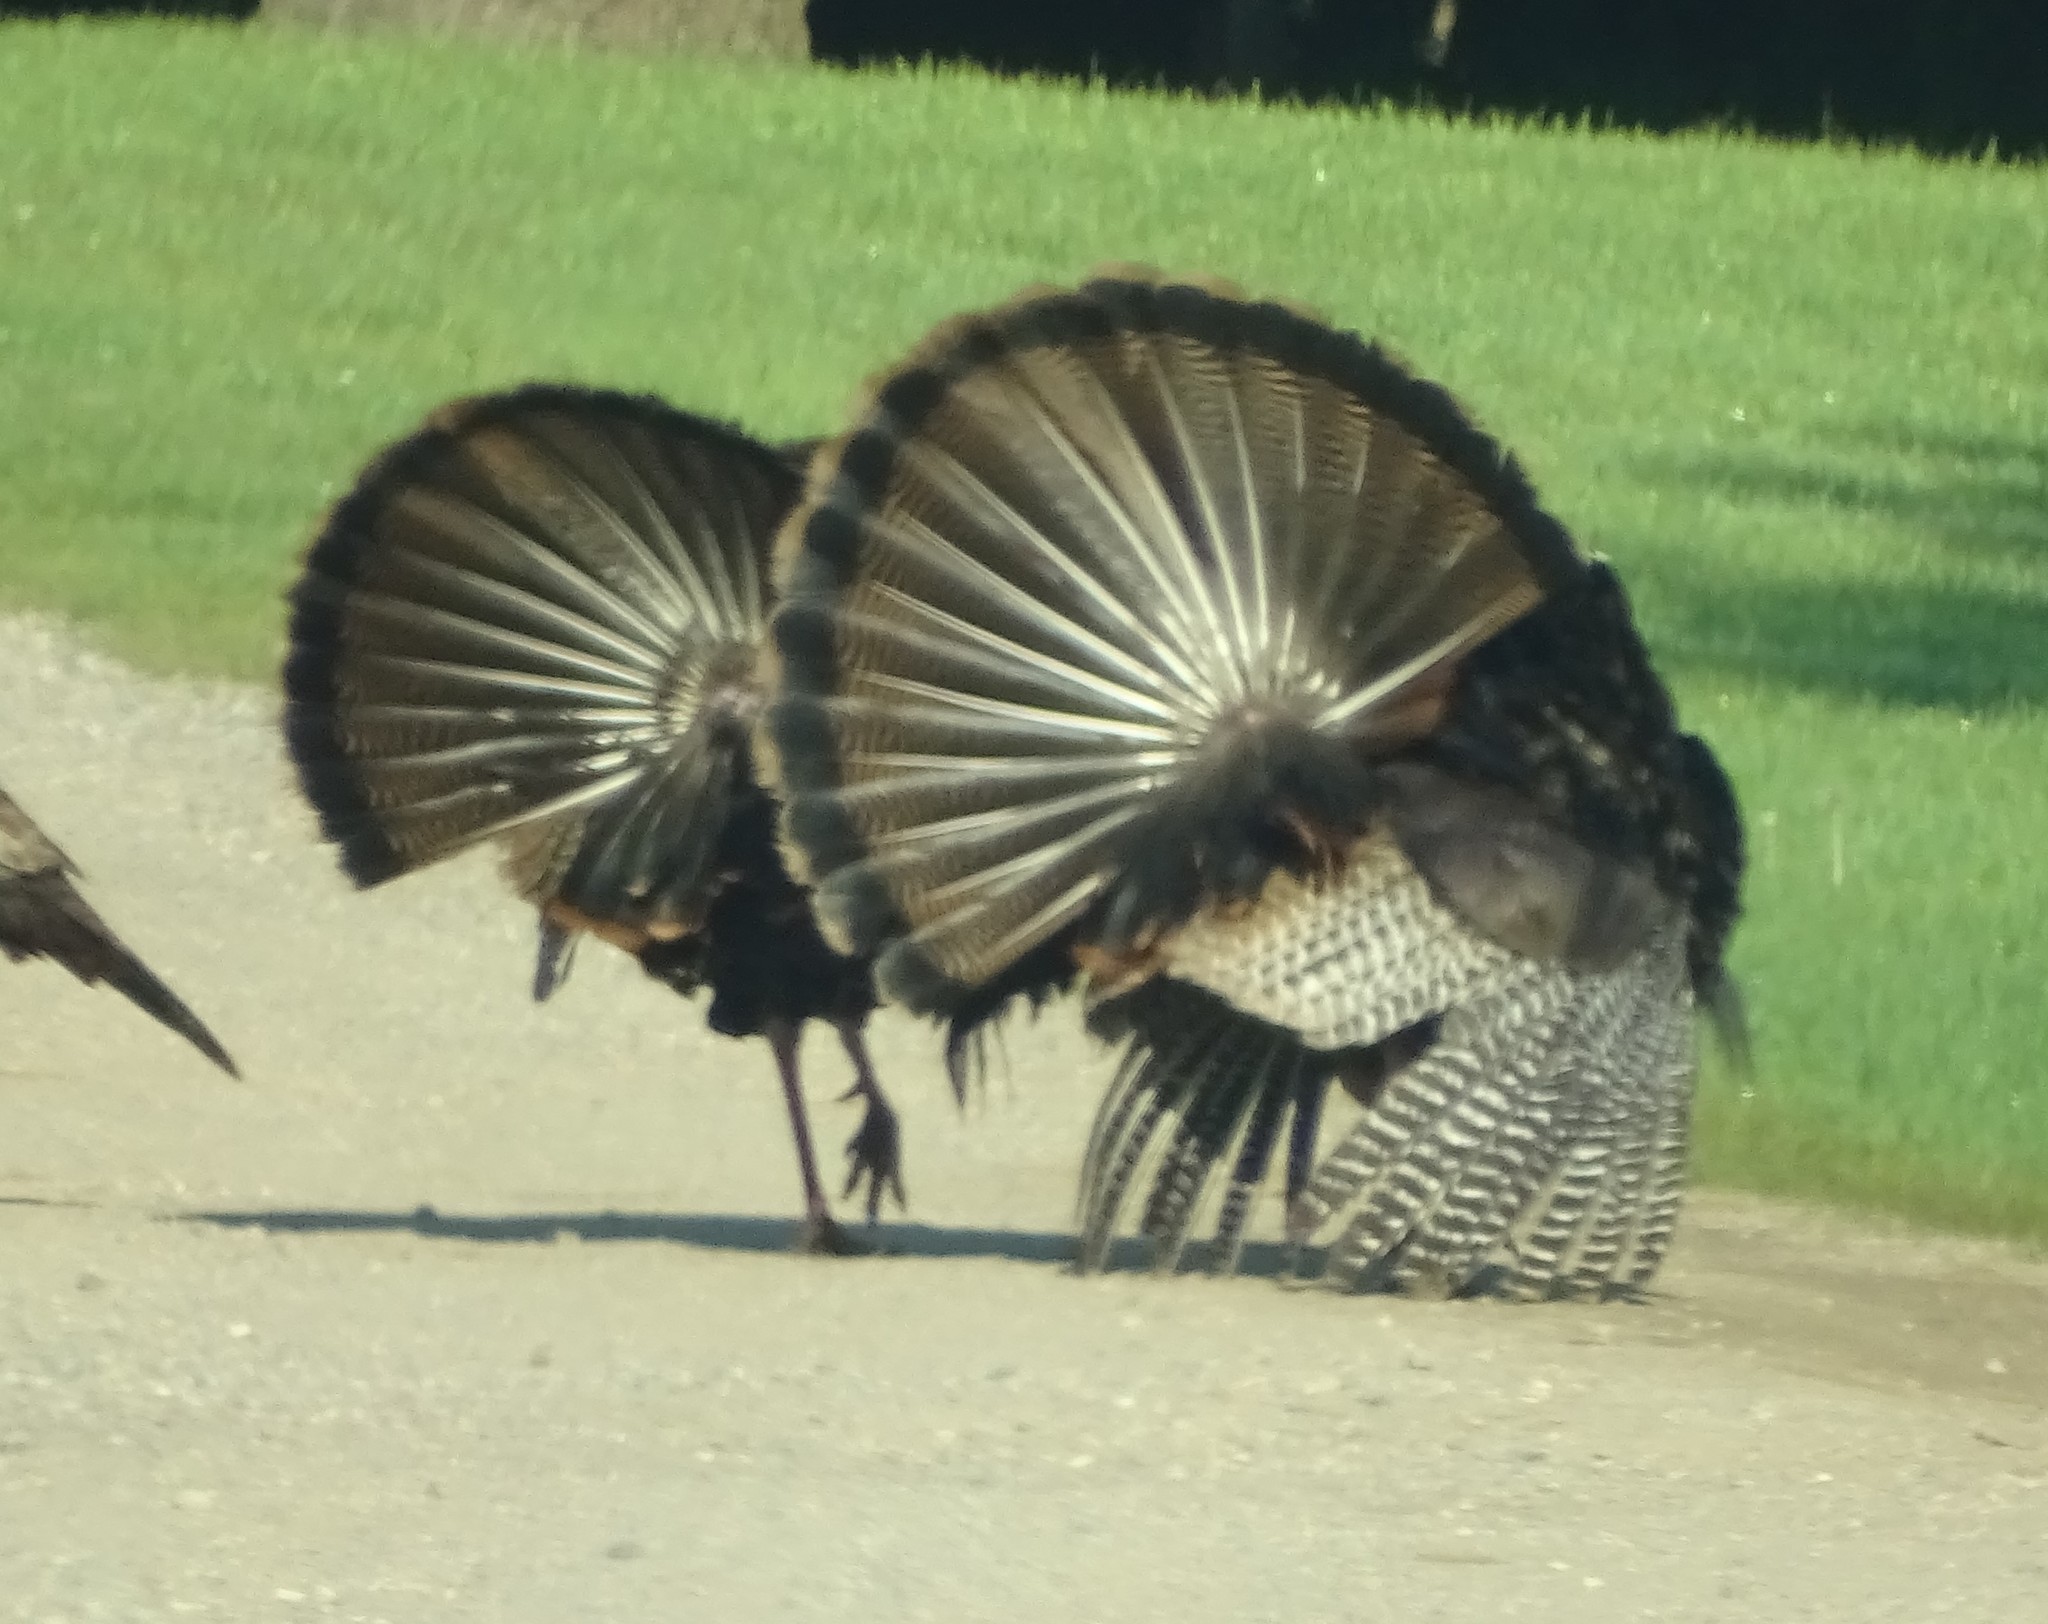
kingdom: Animalia
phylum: Chordata
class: Aves
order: Galliformes
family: Phasianidae
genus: Meleagris
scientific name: Meleagris gallopavo
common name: Wild turkey
